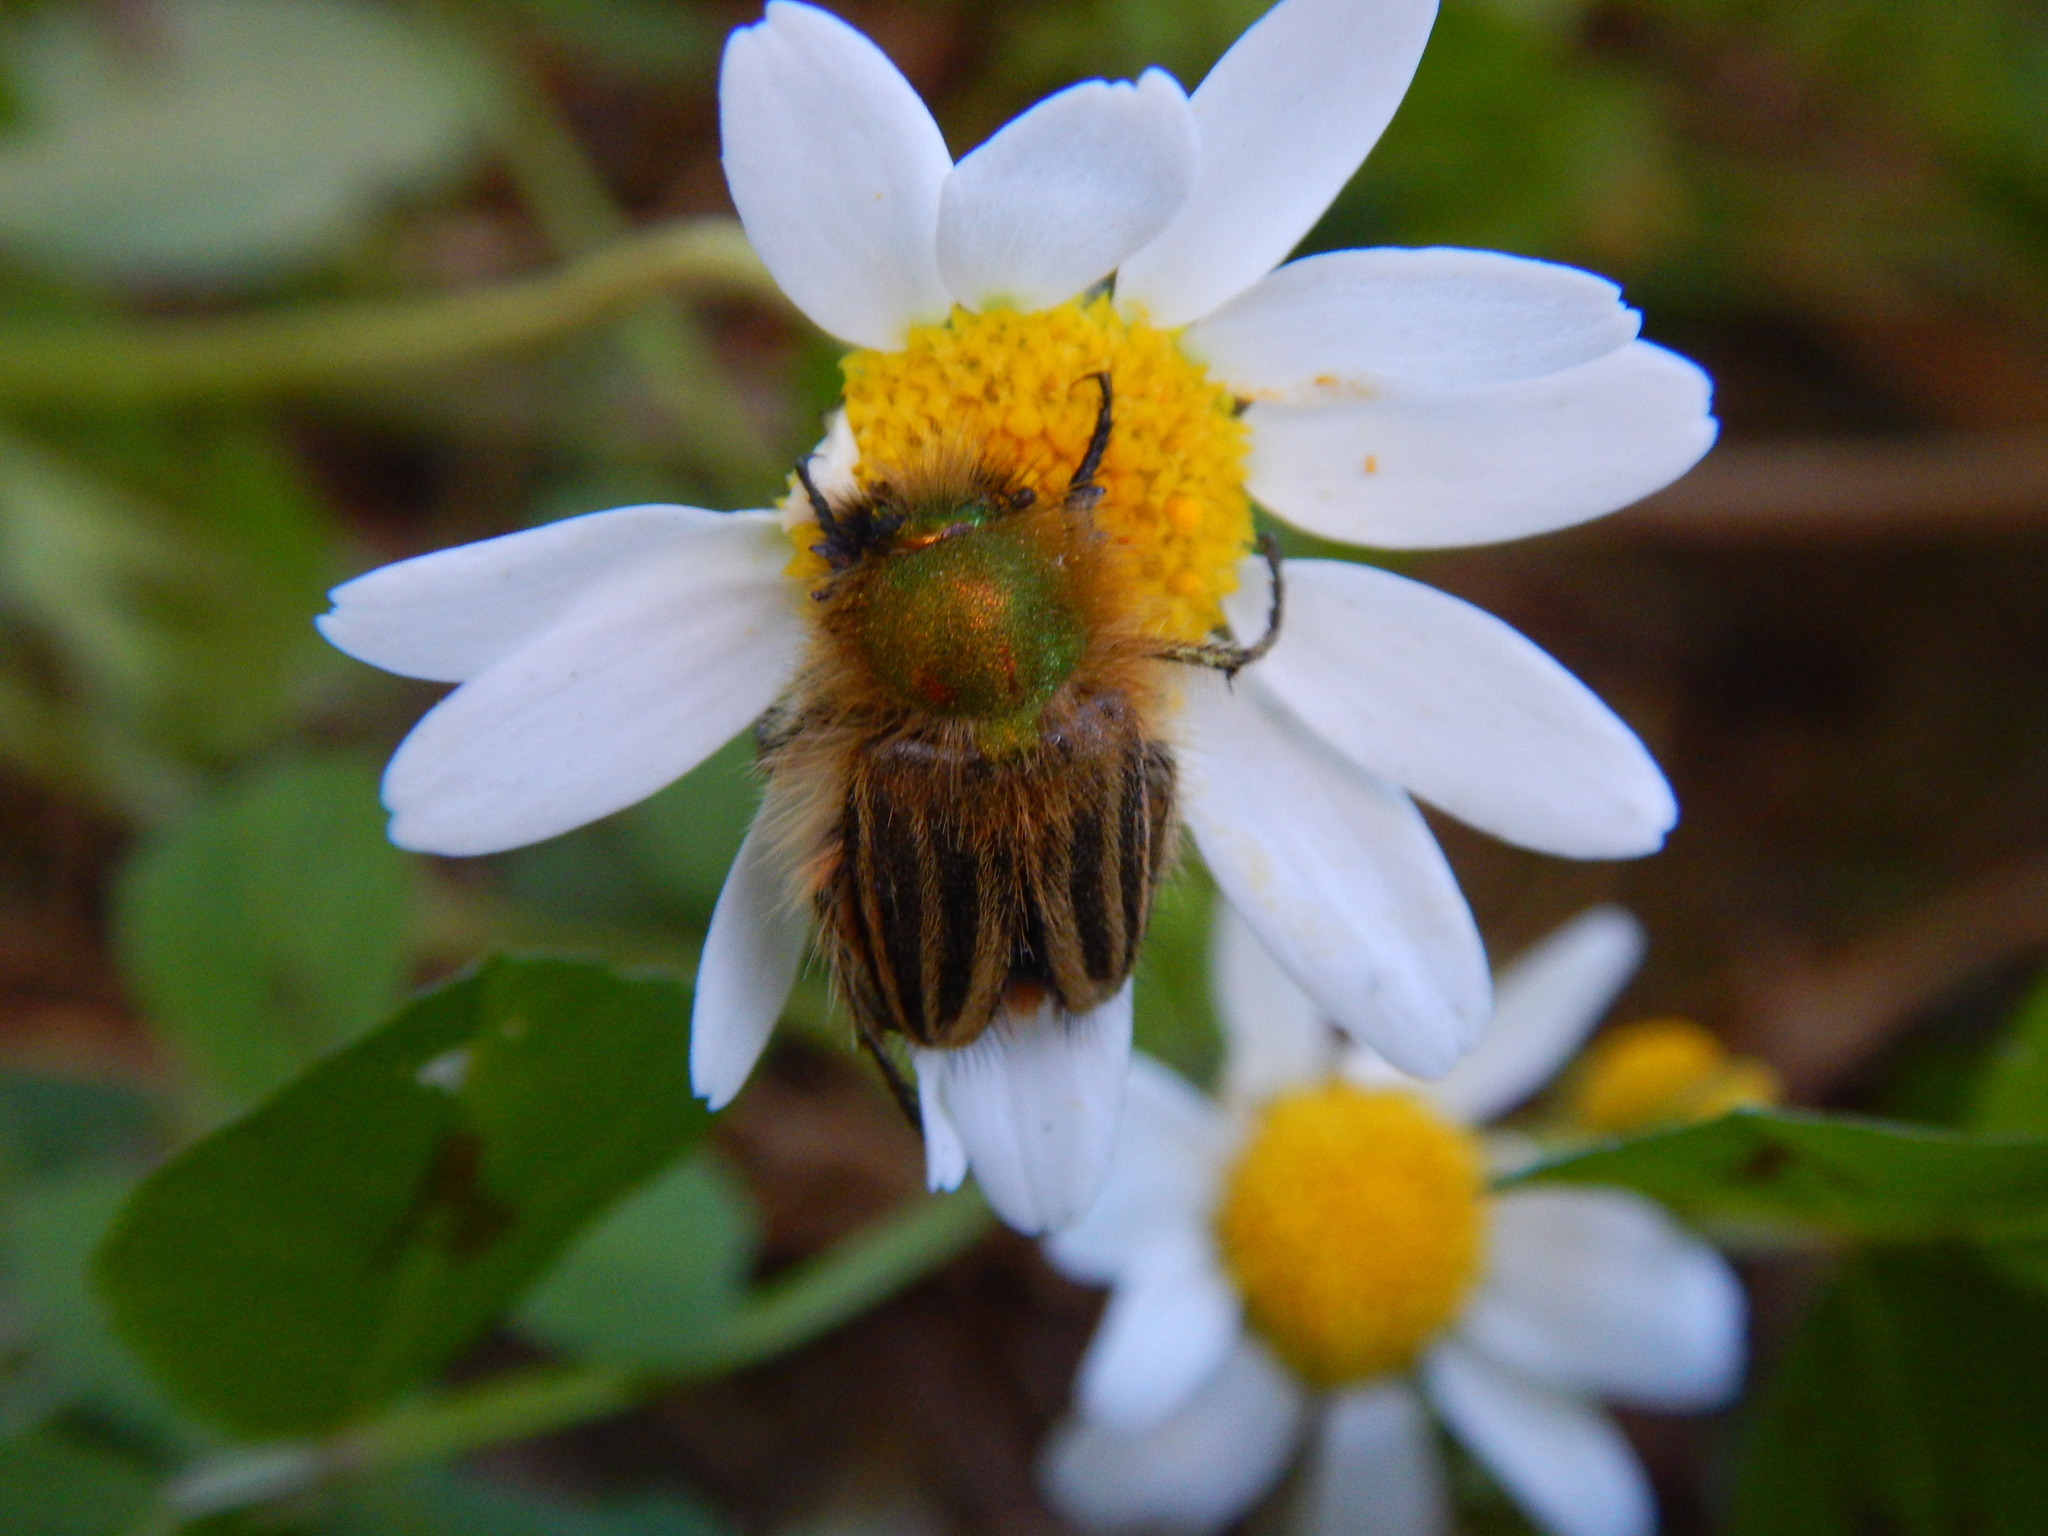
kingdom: Animalia
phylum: Arthropoda
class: Insecta
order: Coleoptera
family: Glaphyridae
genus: Eulasia
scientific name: Eulasia pareyssei
